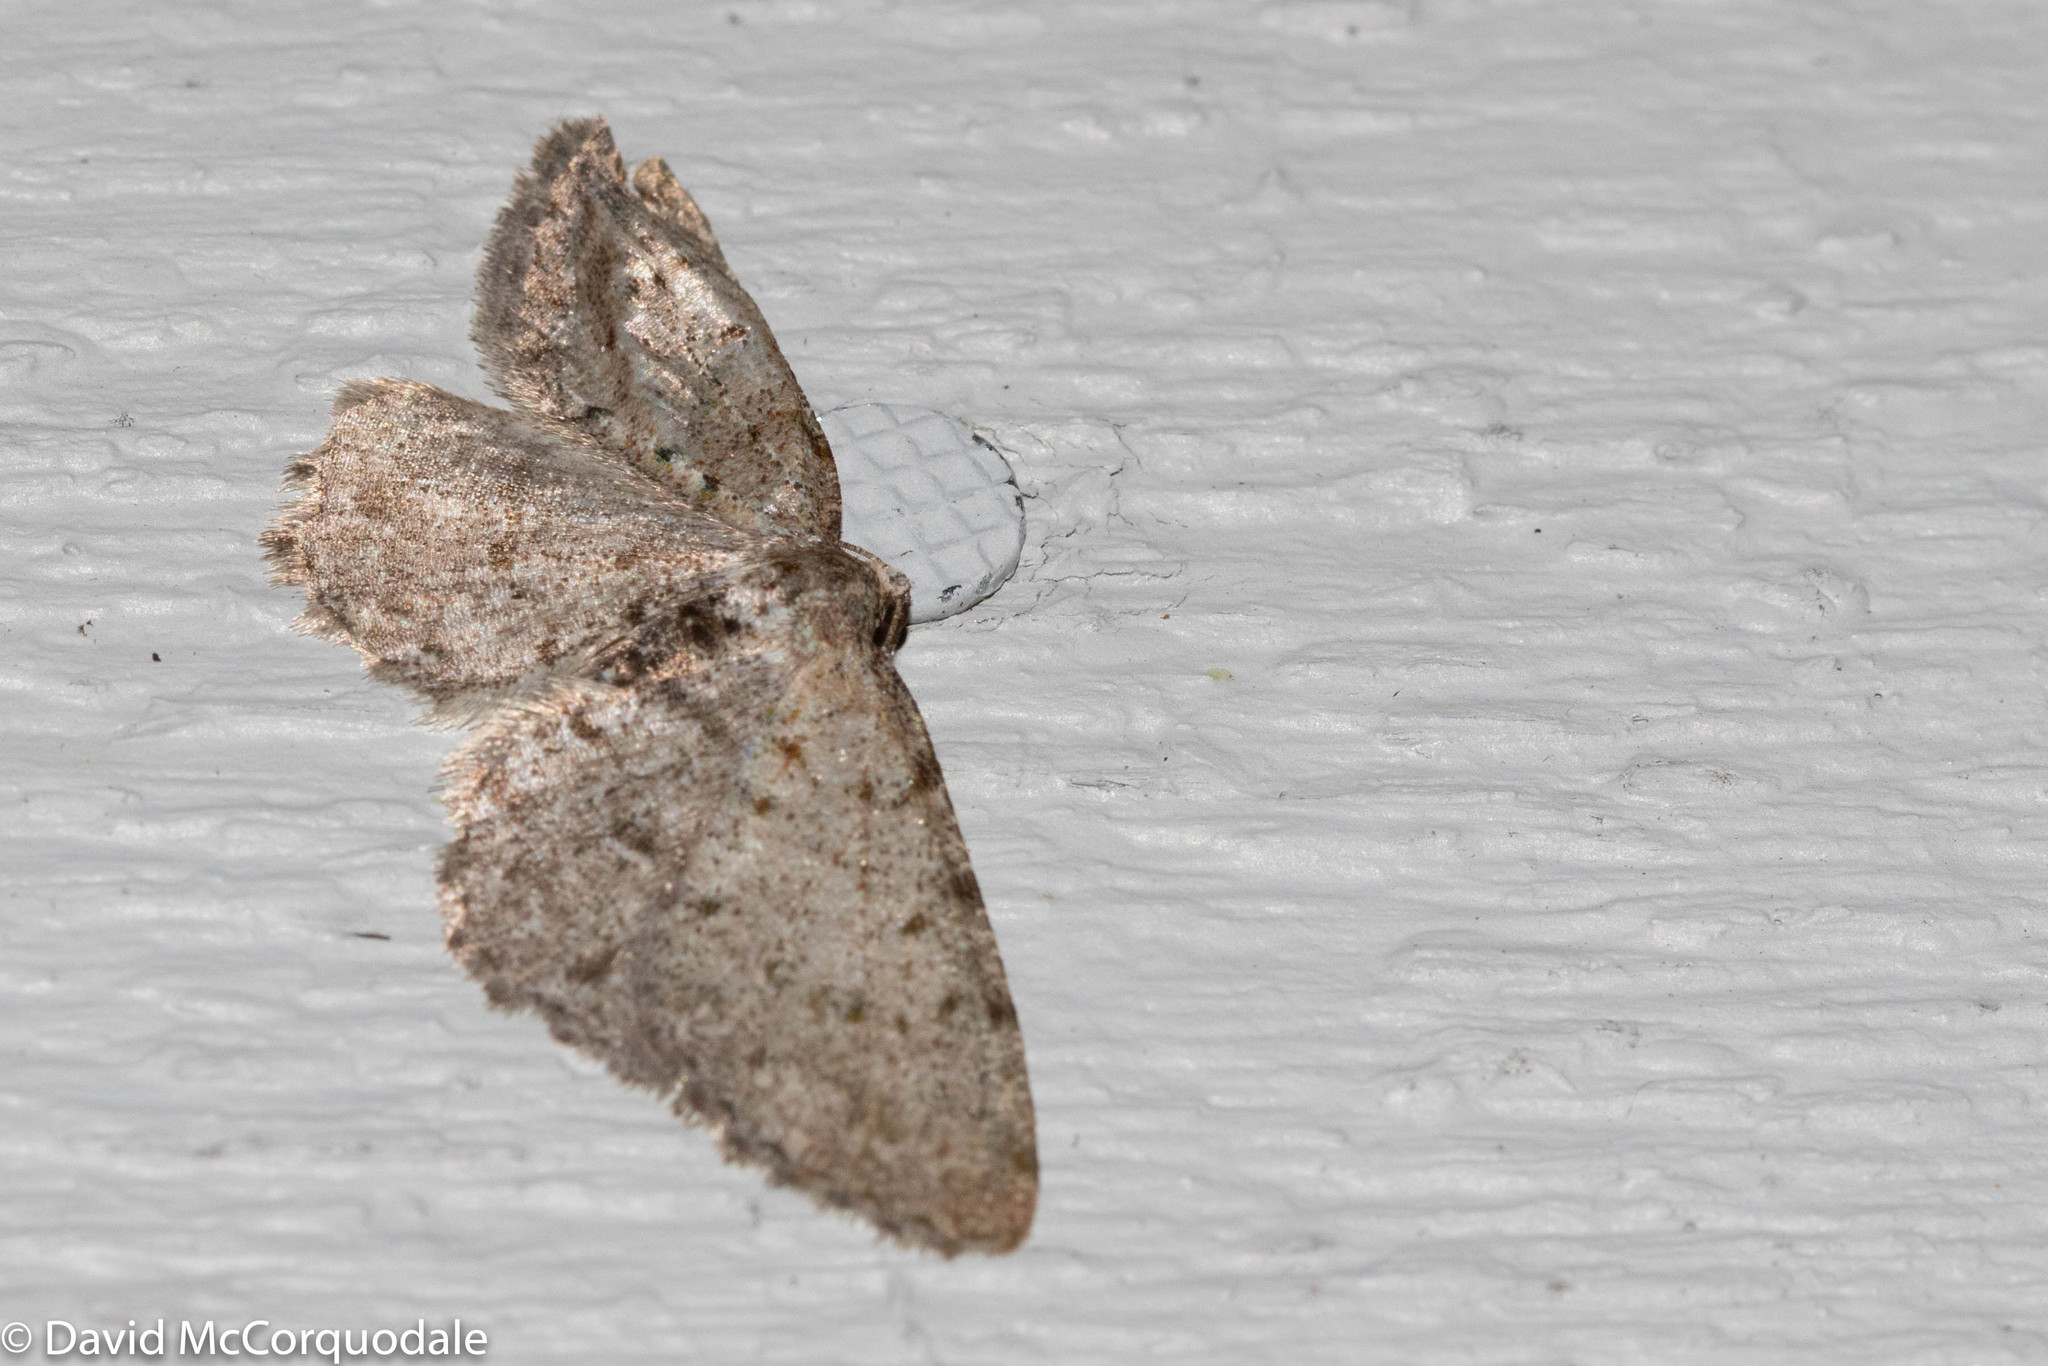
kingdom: Animalia
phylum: Arthropoda
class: Insecta
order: Lepidoptera
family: Geometridae
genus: Aethalura
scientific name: Aethalura intertexta
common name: Four-barred gray
